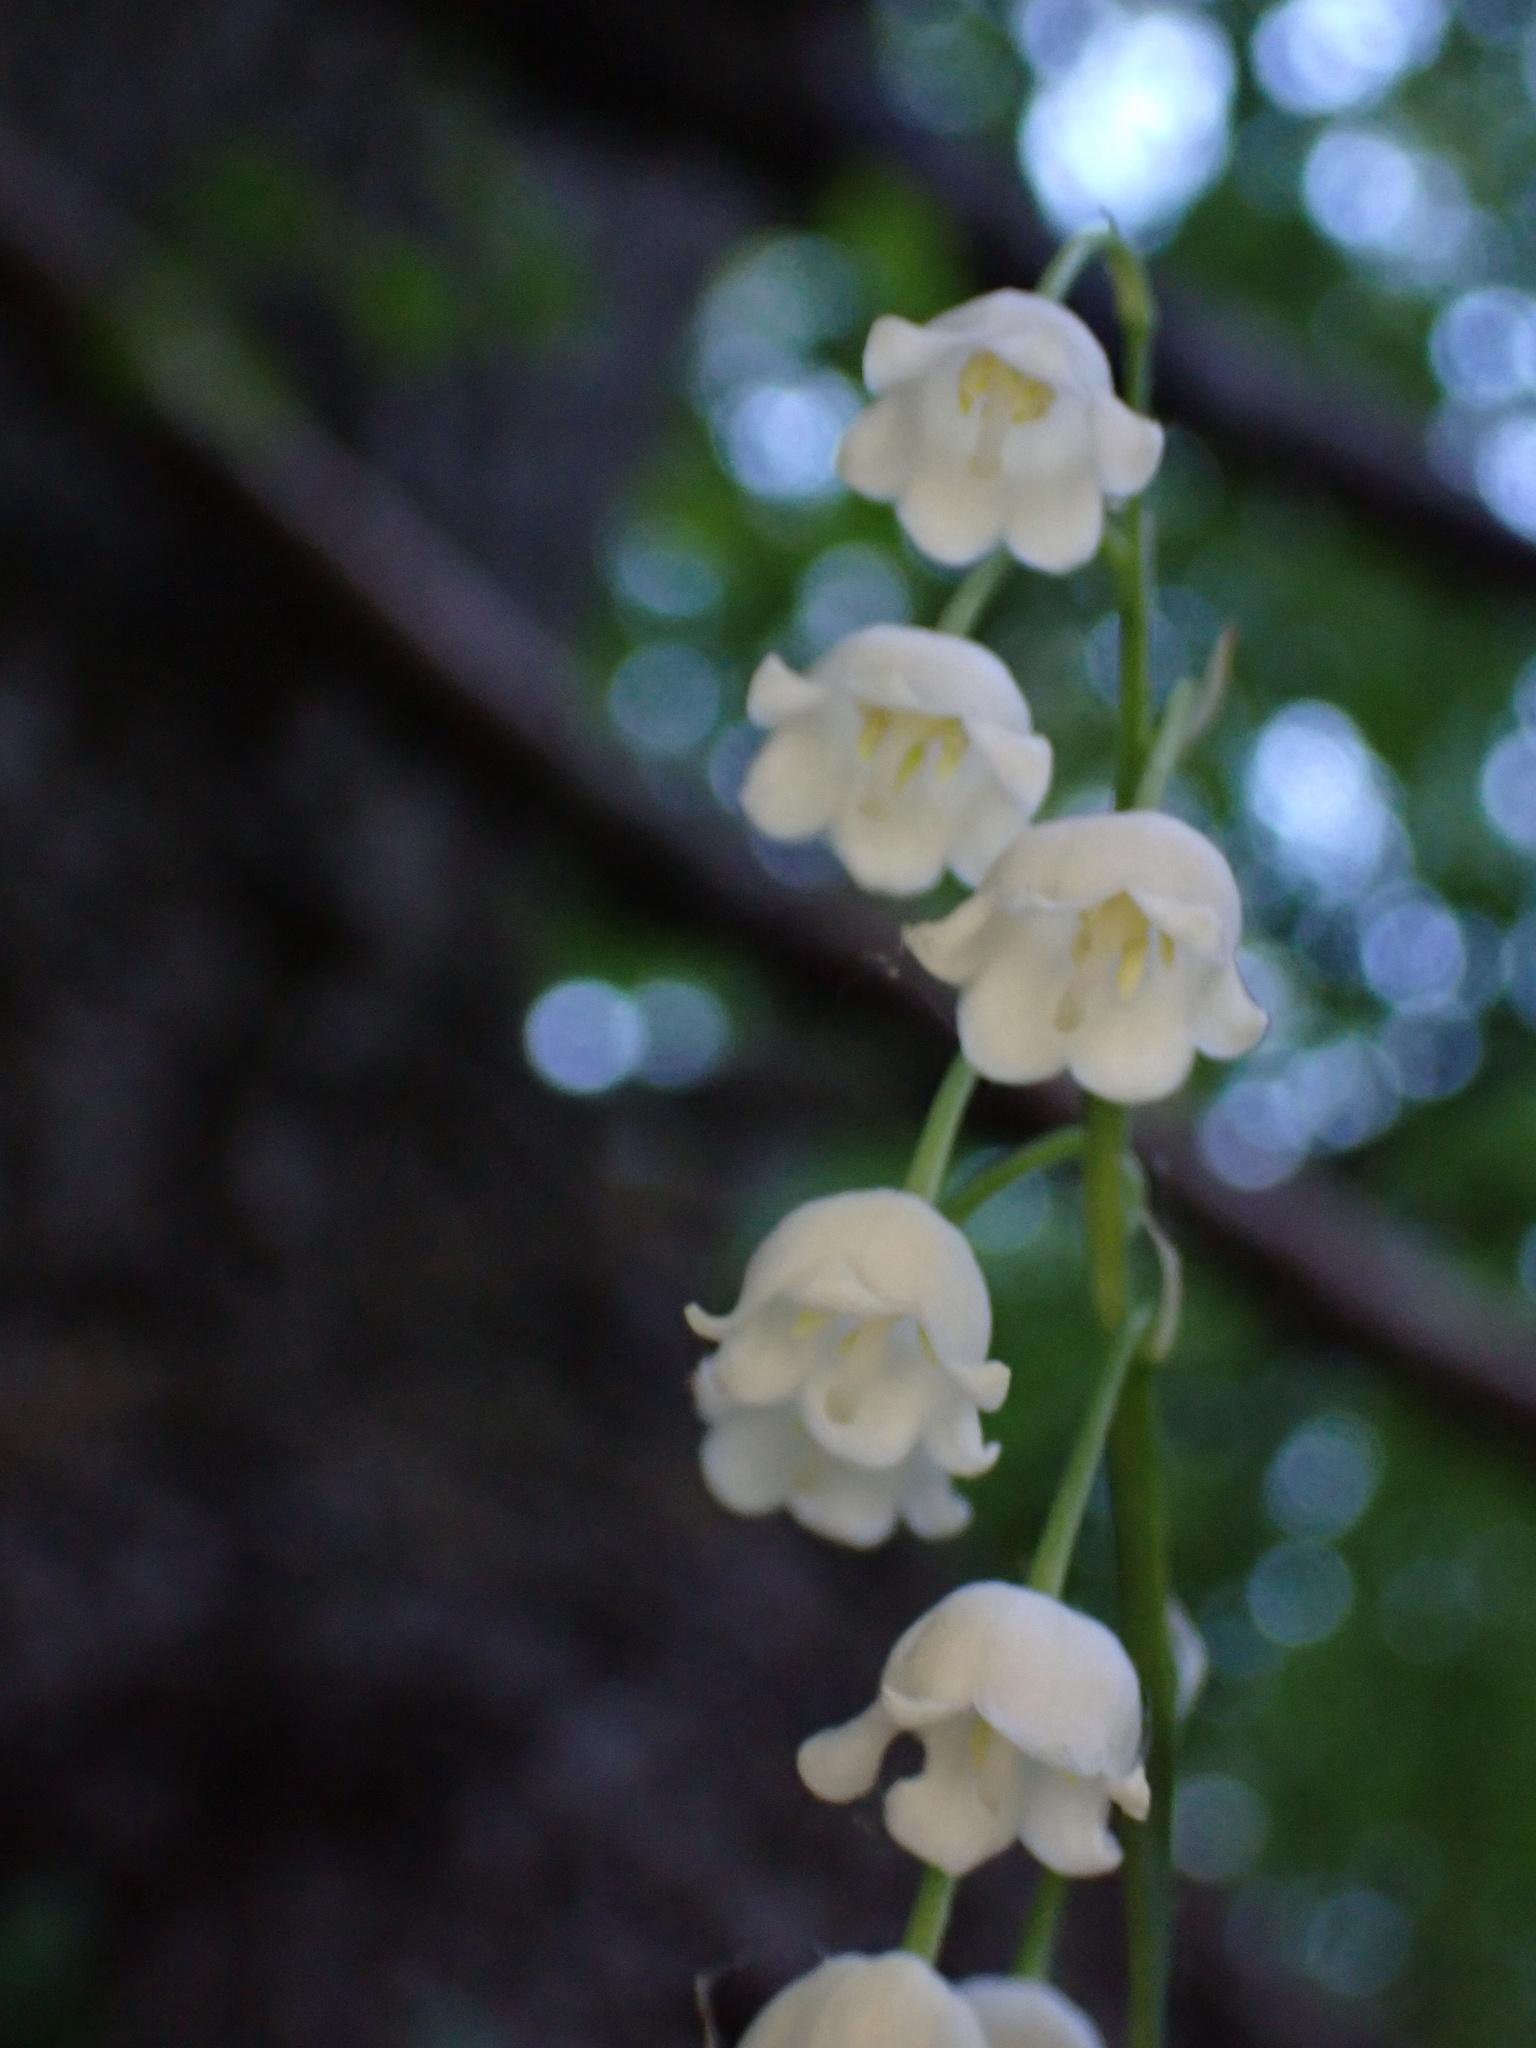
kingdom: Plantae
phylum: Tracheophyta
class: Liliopsida
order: Asparagales
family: Asparagaceae
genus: Convallaria
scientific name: Convallaria majalis
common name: Lily-of-the-valley
